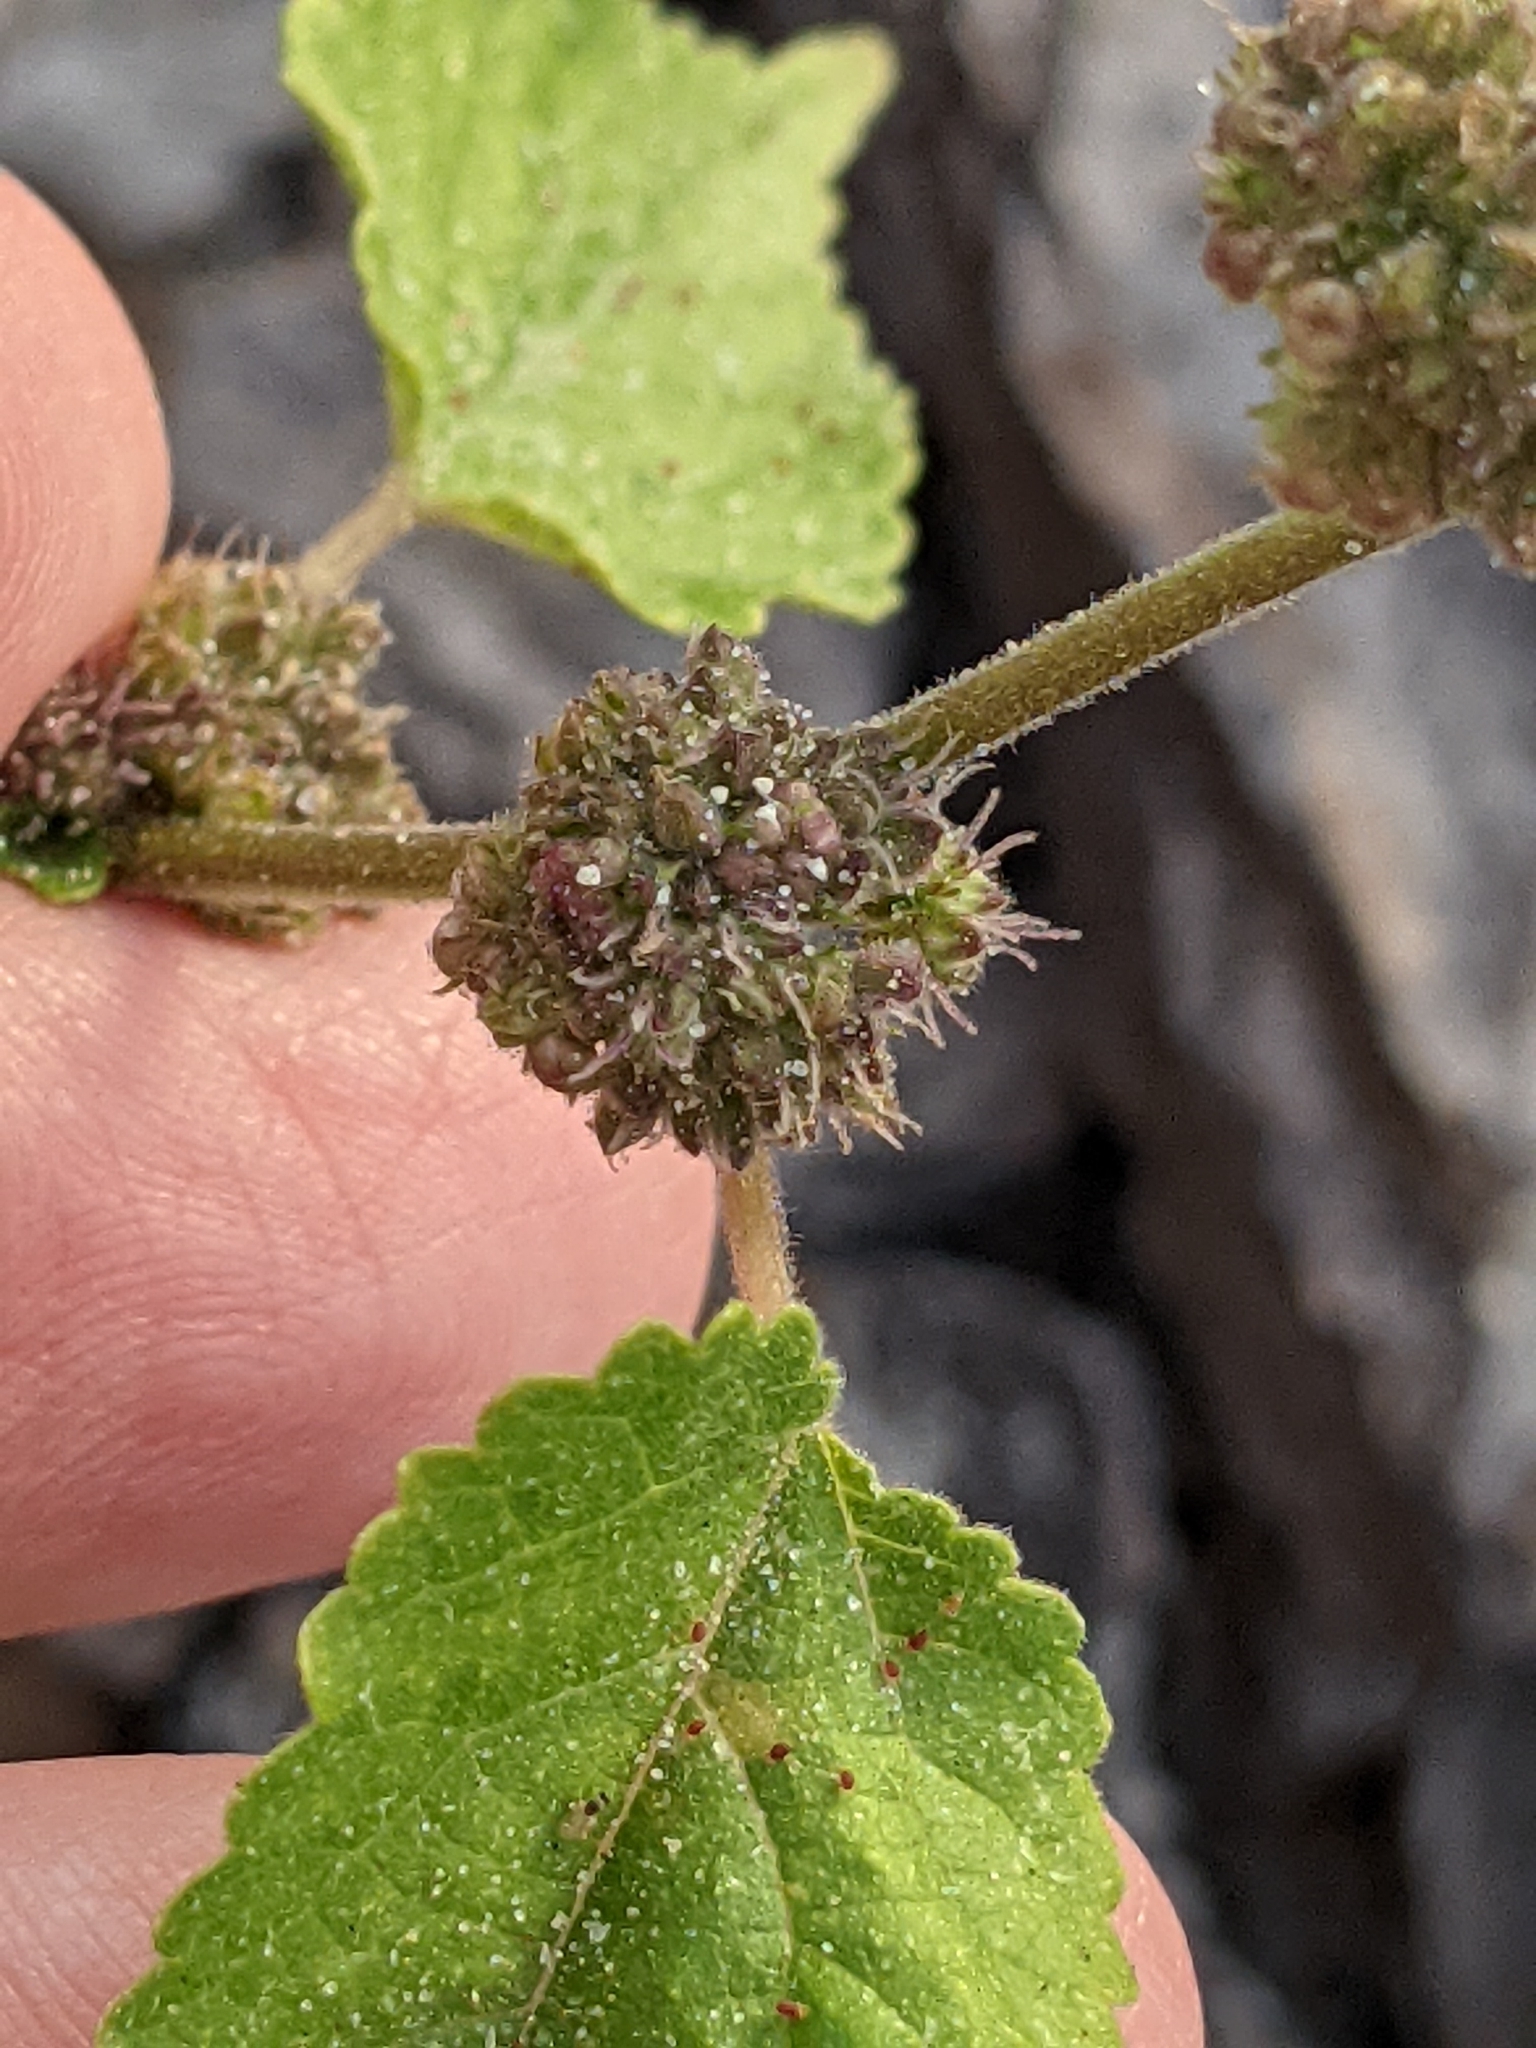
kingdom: Plantae
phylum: Tracheophyta
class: Magnoliopsida
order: Rosales
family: Moraceae
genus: Fatoua
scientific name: Fatoua villosa
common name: Hairy crabweed
